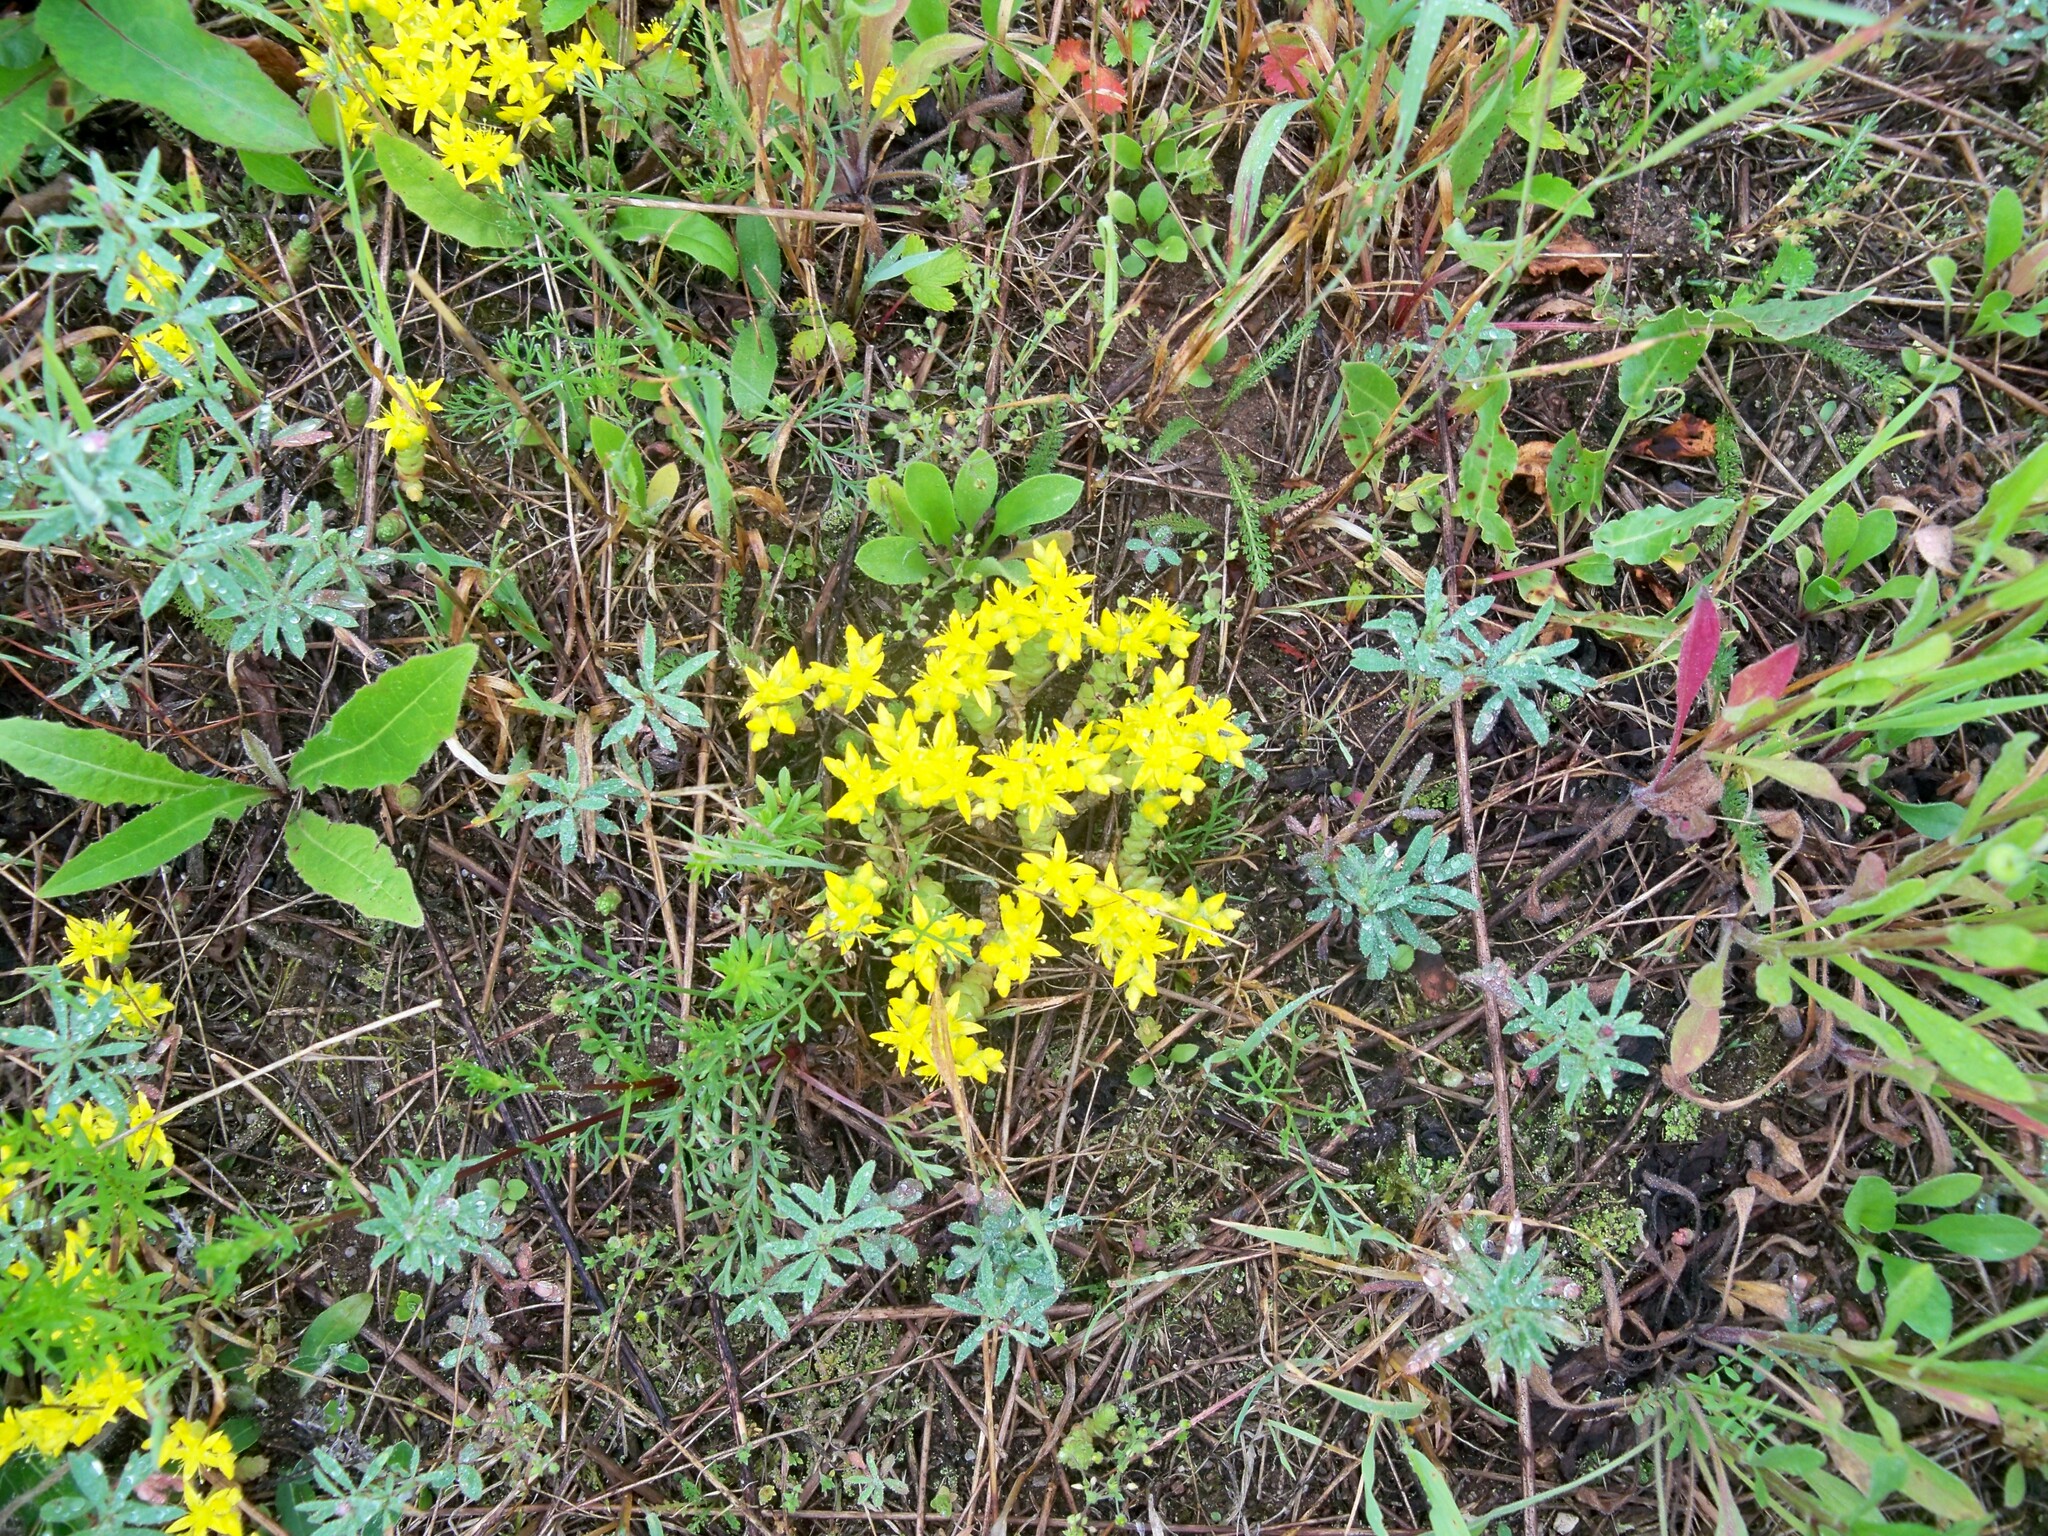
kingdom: Plantae
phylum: Tracheophyta
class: Magnoliopsida
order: Saxifragales
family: Crassulaceae
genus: Sedum
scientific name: Sedum acre
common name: Biting stonecrop
